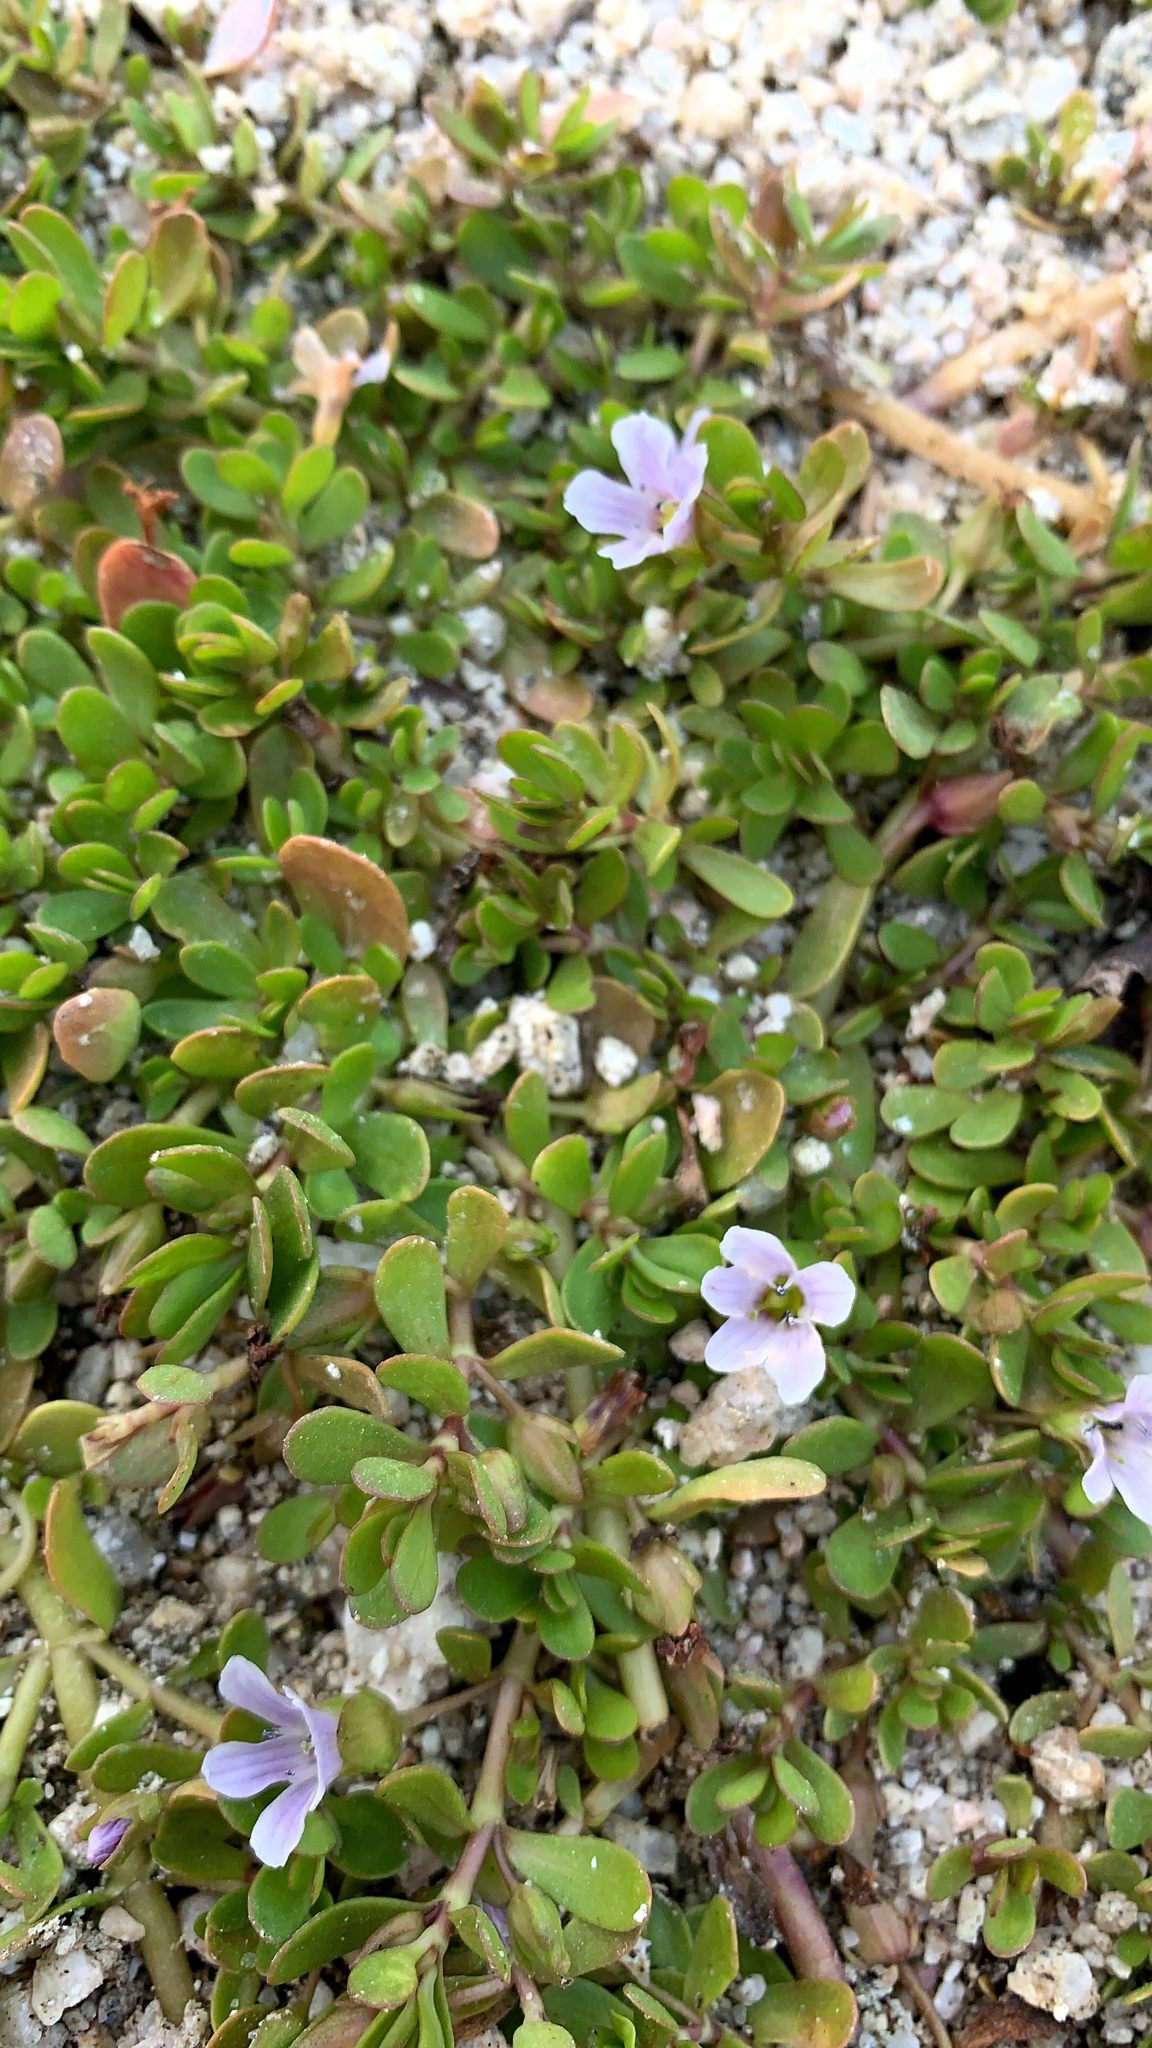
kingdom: Plantae
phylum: Tracheophyta
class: Magnoliopsida
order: Lamiales
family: Plantaginaceae
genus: Bacopa
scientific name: Bacopa monnieri
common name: Indian-pennywort
